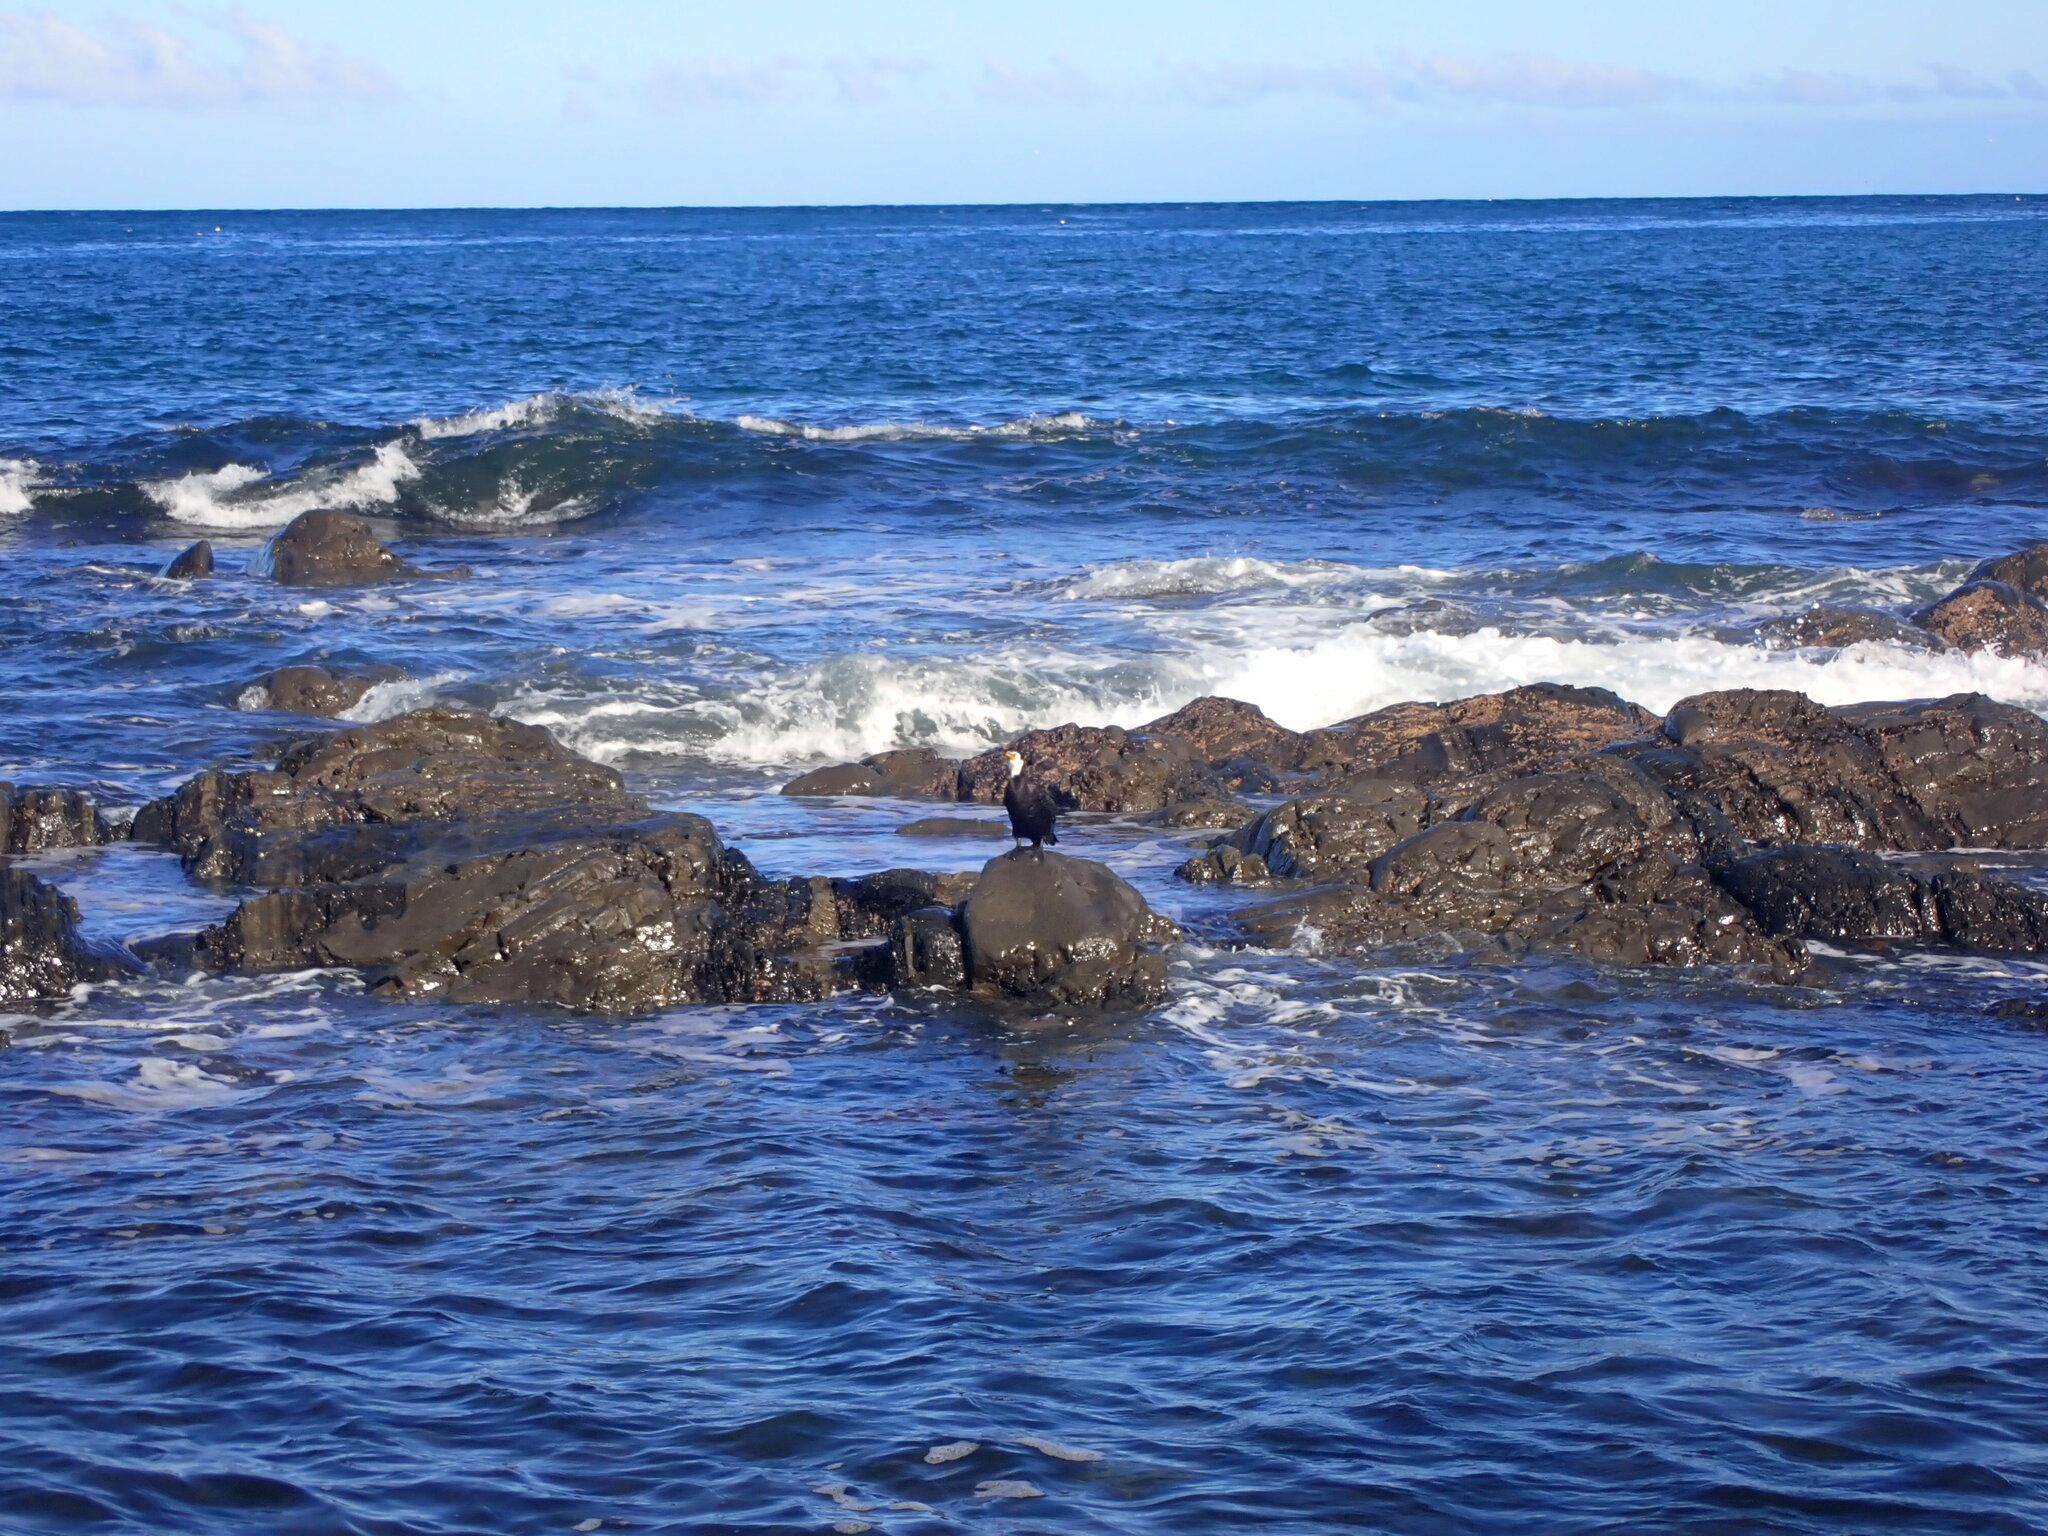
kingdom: Animalia
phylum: Chordata
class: Aves
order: Suliformes
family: Phalacrocoracidae
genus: Microcarbo
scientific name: Microcarbo melanoleucos
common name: Little pied cormorant
